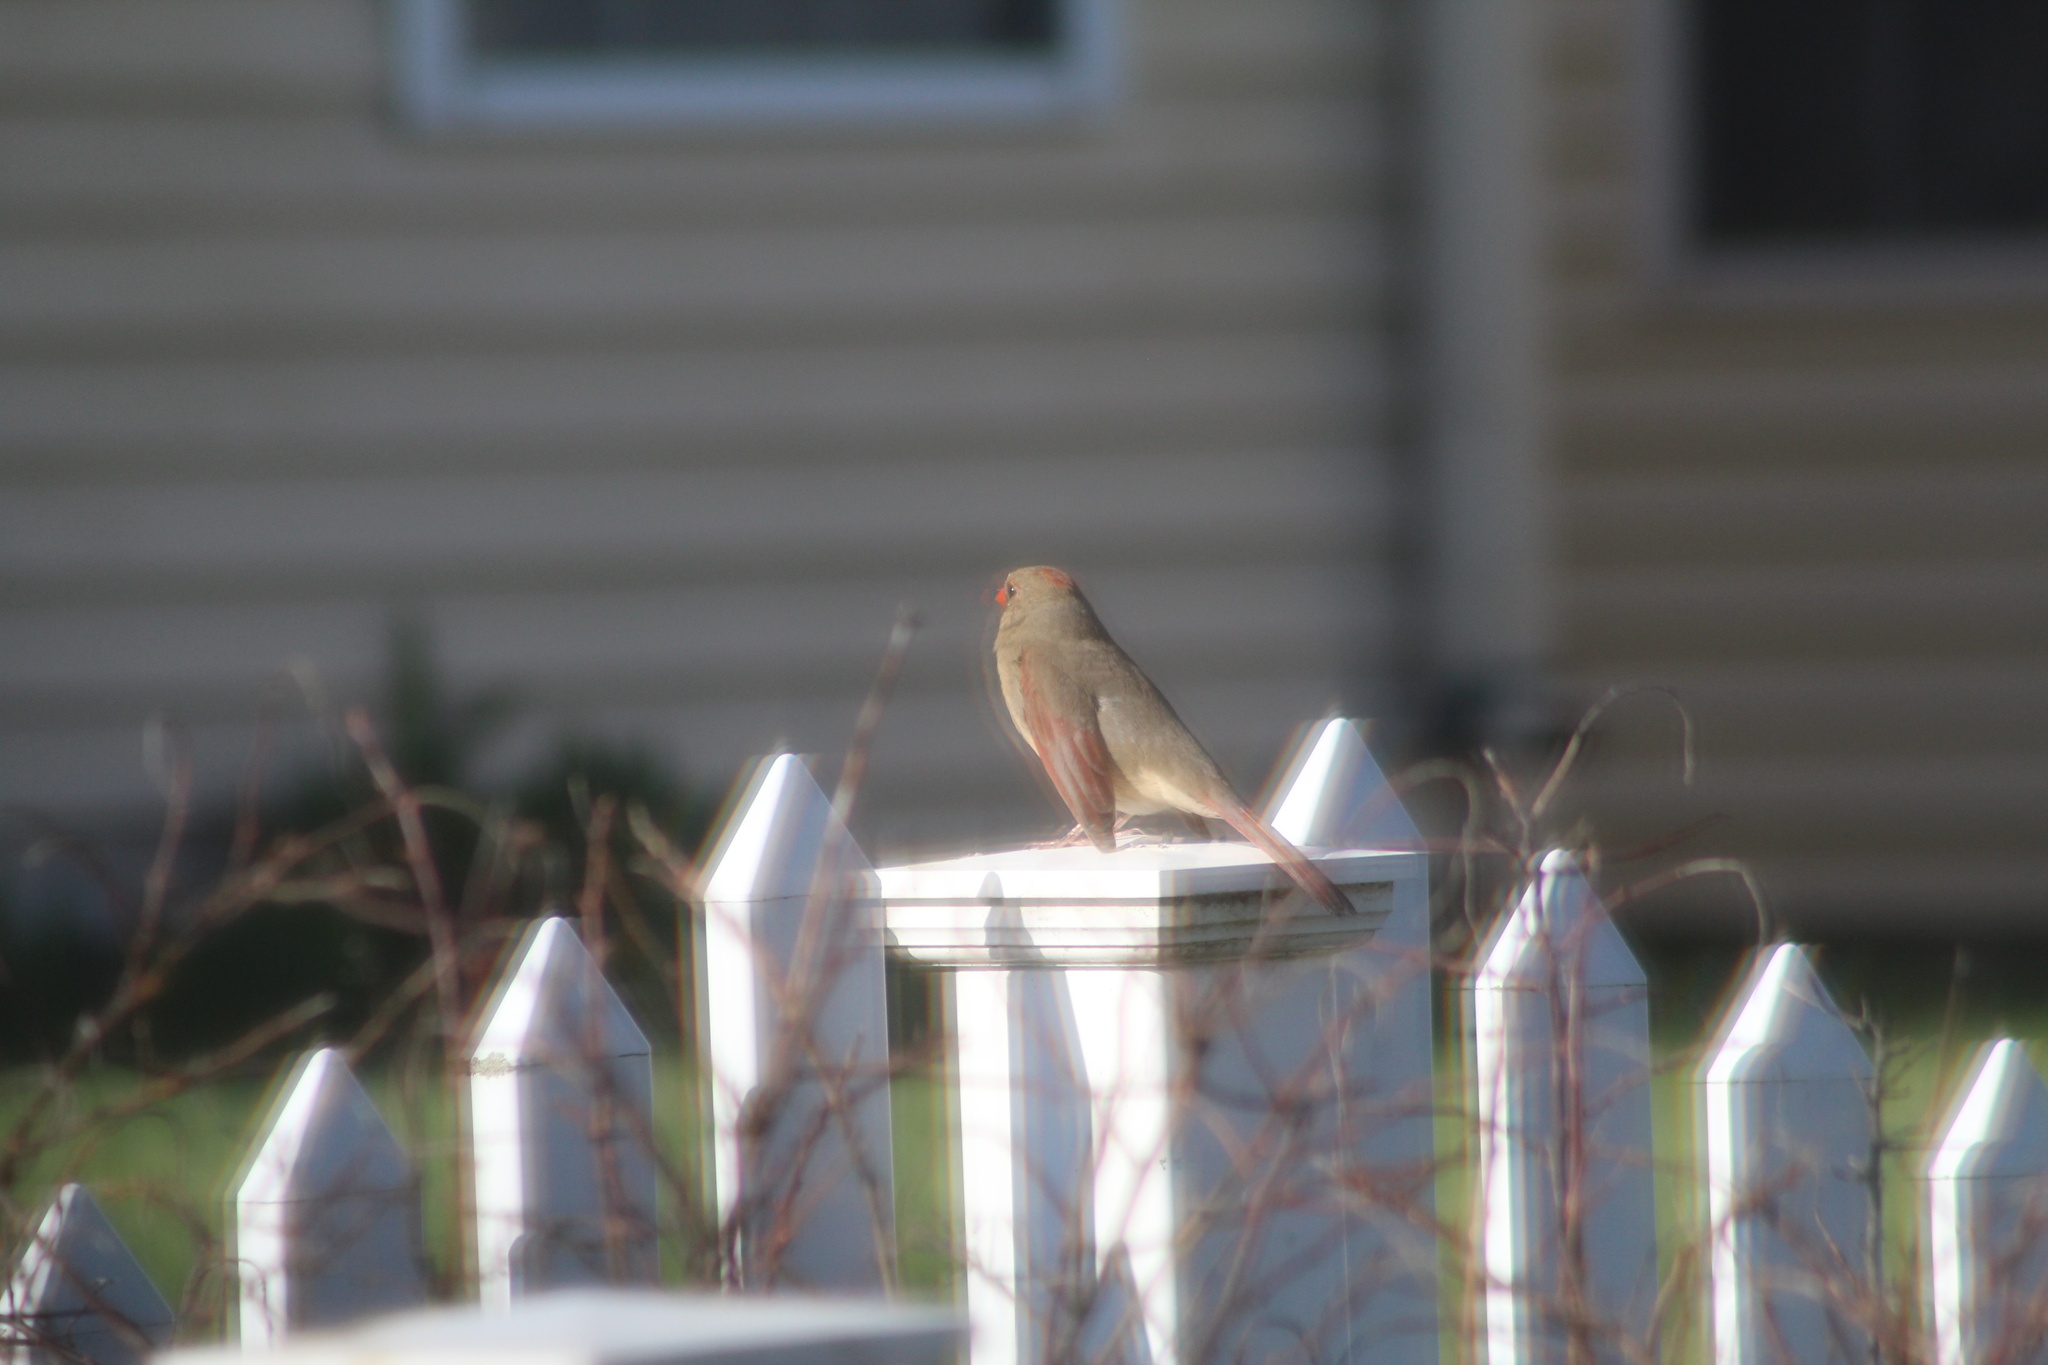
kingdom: Animalia
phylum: Chordata
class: Aves
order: Passeriformes
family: Cardinalidae
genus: Cardinalis
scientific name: Cardinalis cardinalis
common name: Northern cardinal
